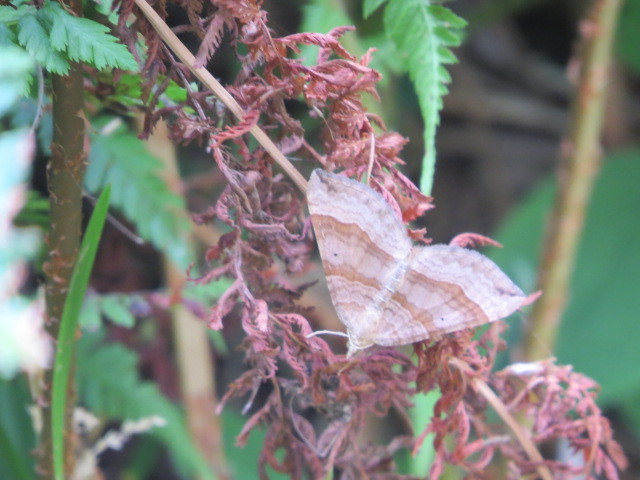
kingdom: Animalia
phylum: Arthropoda
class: Insecta
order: Lepidoptera
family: Geometridae
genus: Scotopteryx
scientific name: Scotopteryx chenopodiata
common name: Shaded broad-bar
